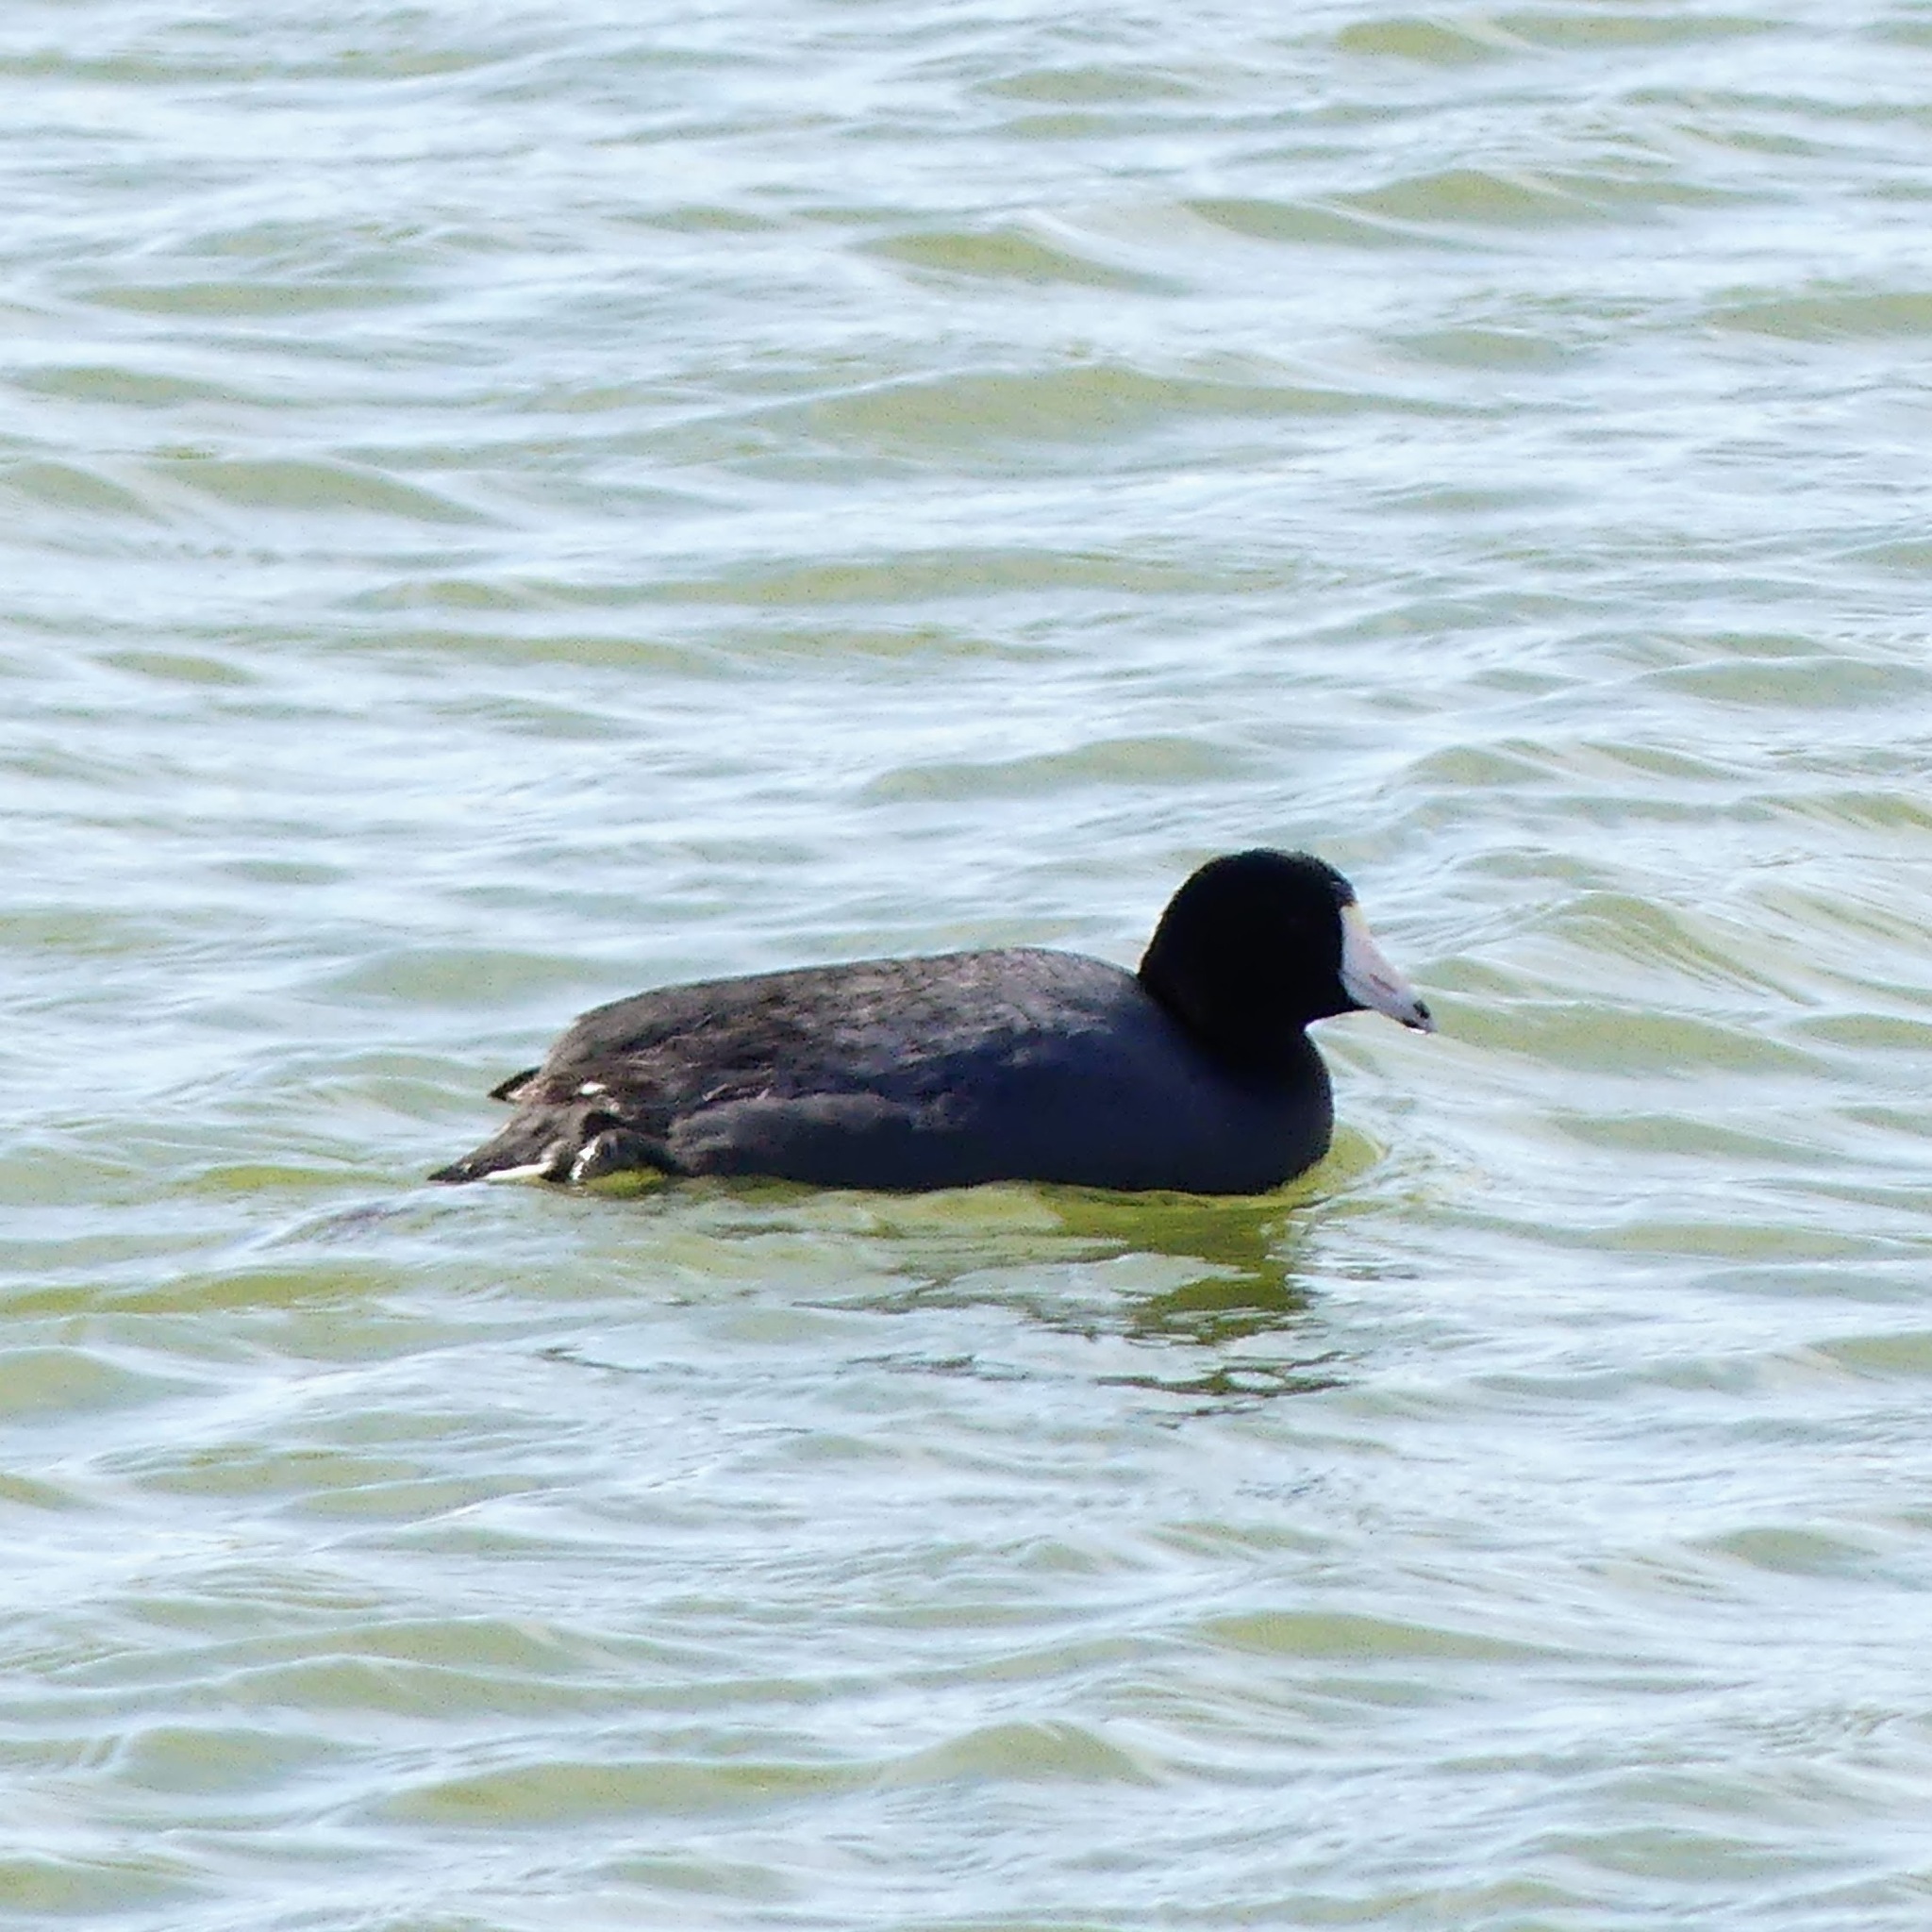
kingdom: Animalia
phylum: Chordata
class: Aves
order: Gruiformes
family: Rallidae
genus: Fulica
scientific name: Fulica americana
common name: American coot
